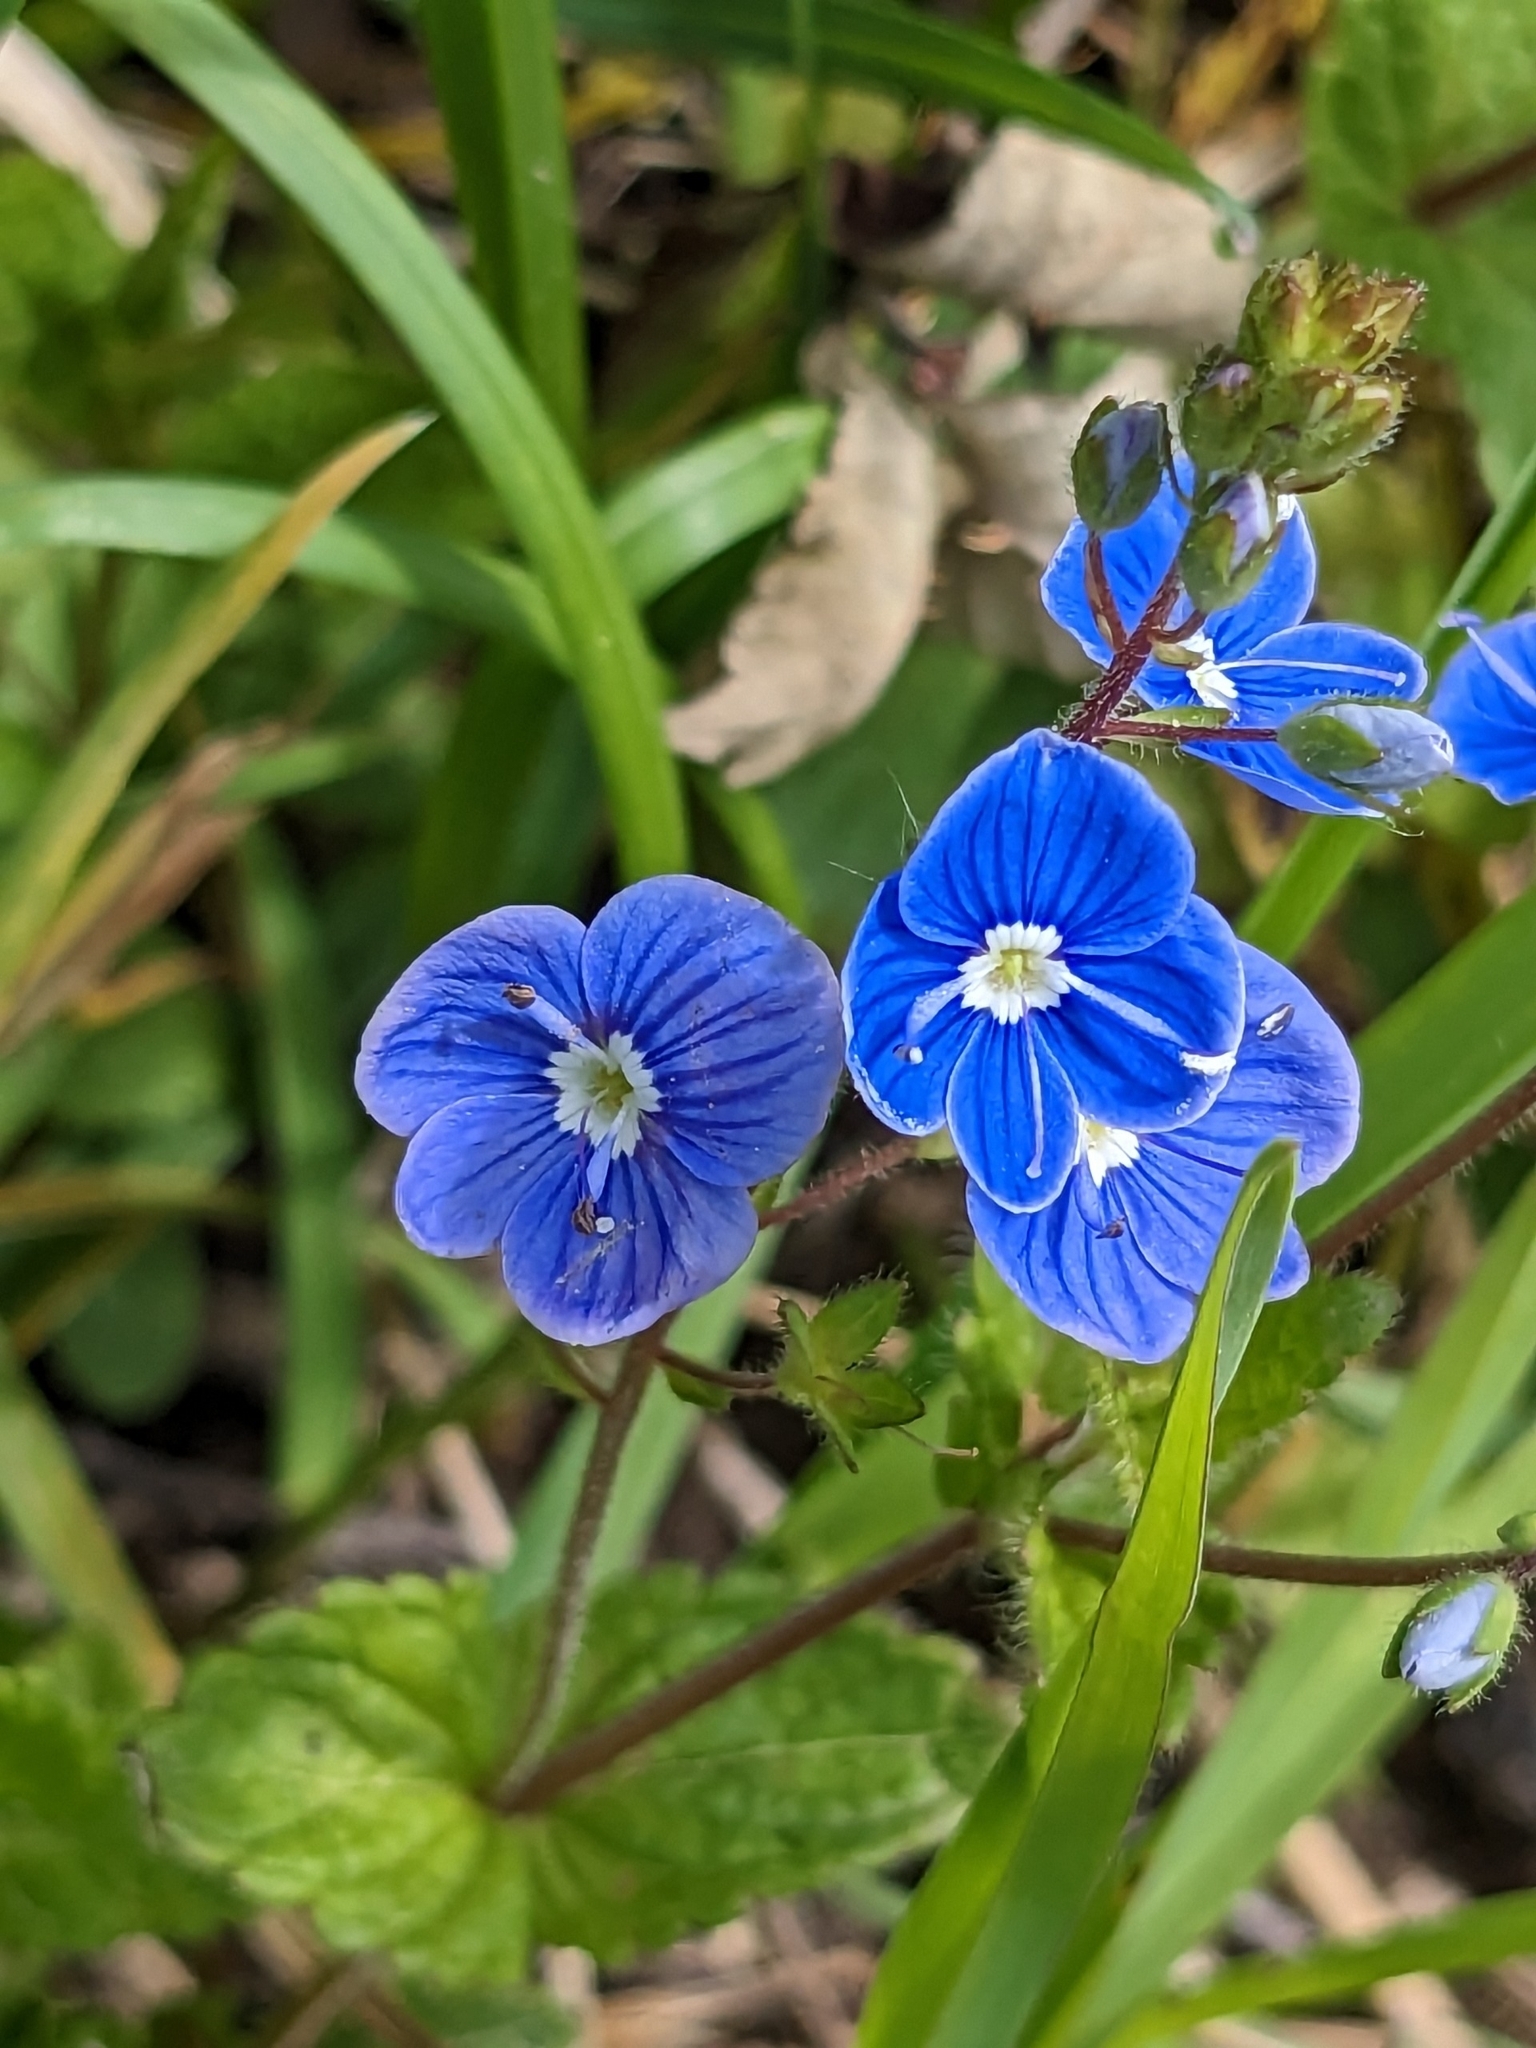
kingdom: Plantae
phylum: Tracheophyta
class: Magnoliopsida
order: Lamiales
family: Plantaginaceae
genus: Veronica
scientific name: Veronica chamaedrys
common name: Germander speedwell
